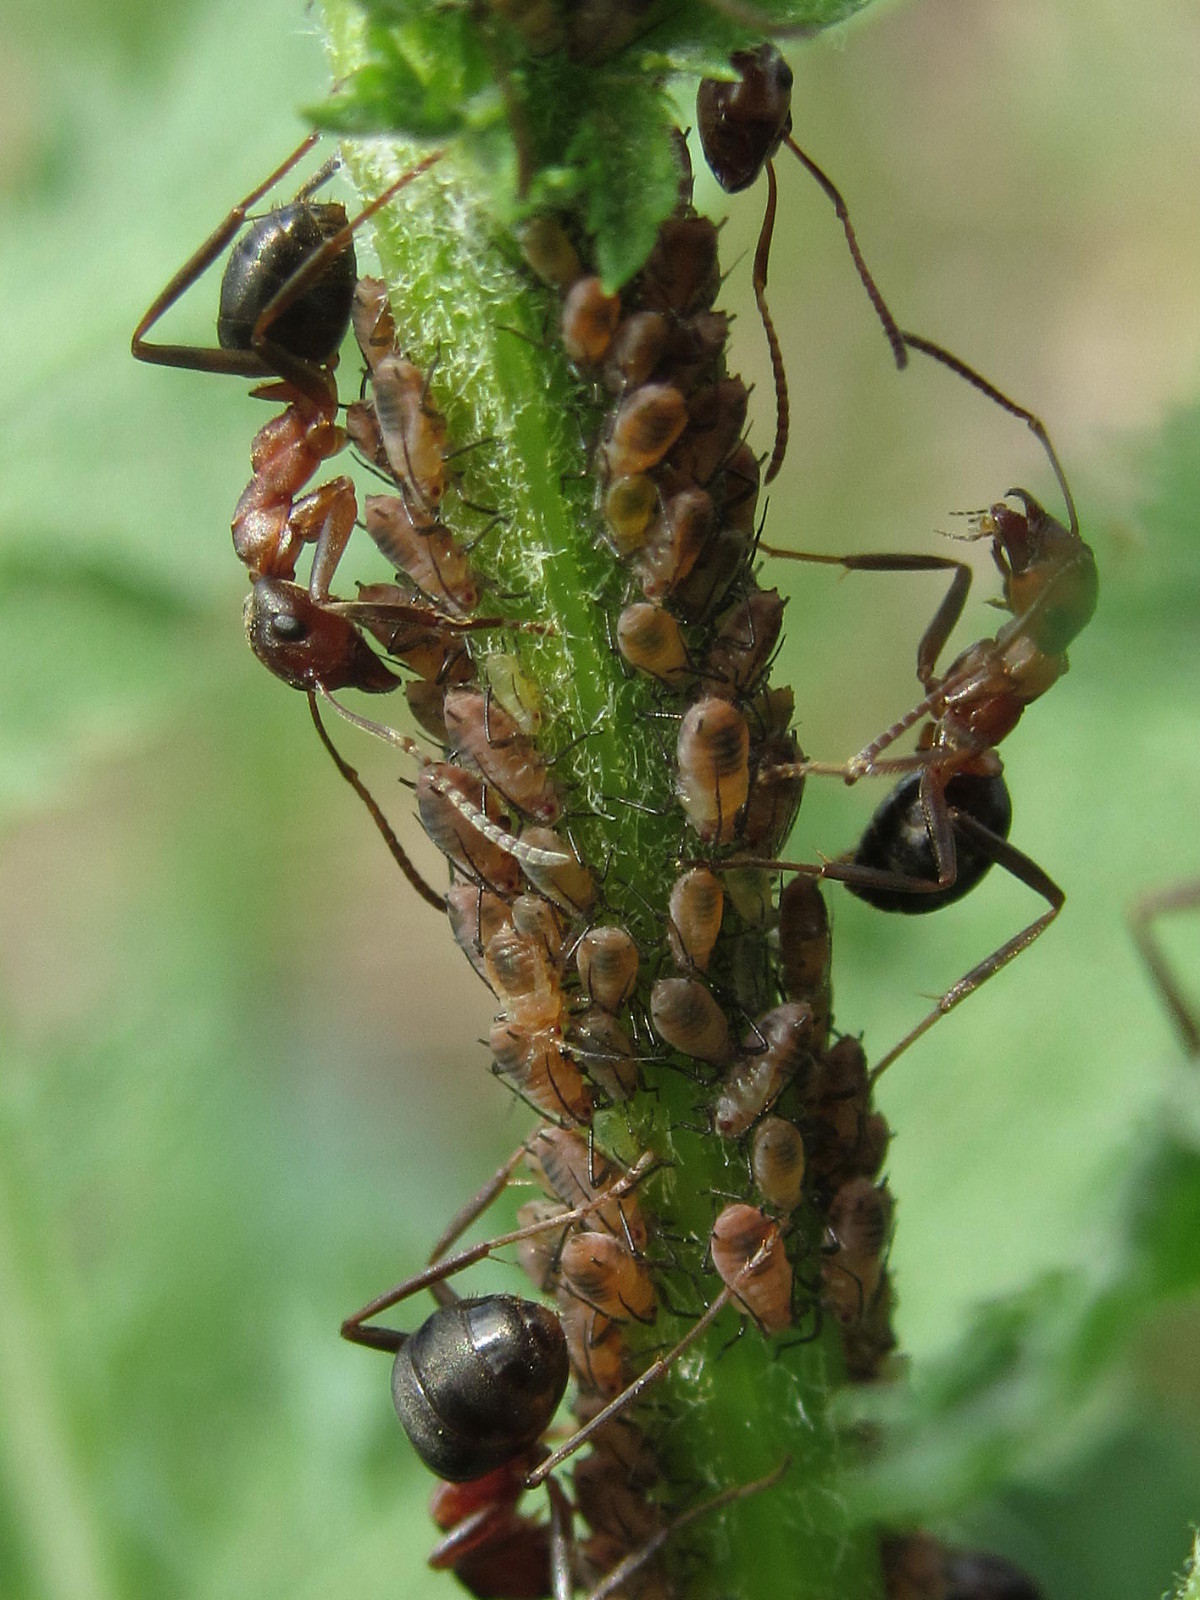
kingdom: Animalia
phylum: Arthropoda
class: Insecta
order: Hemiptera
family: Aphididae
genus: Metopeurum
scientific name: Metopeurum fuscoviride
